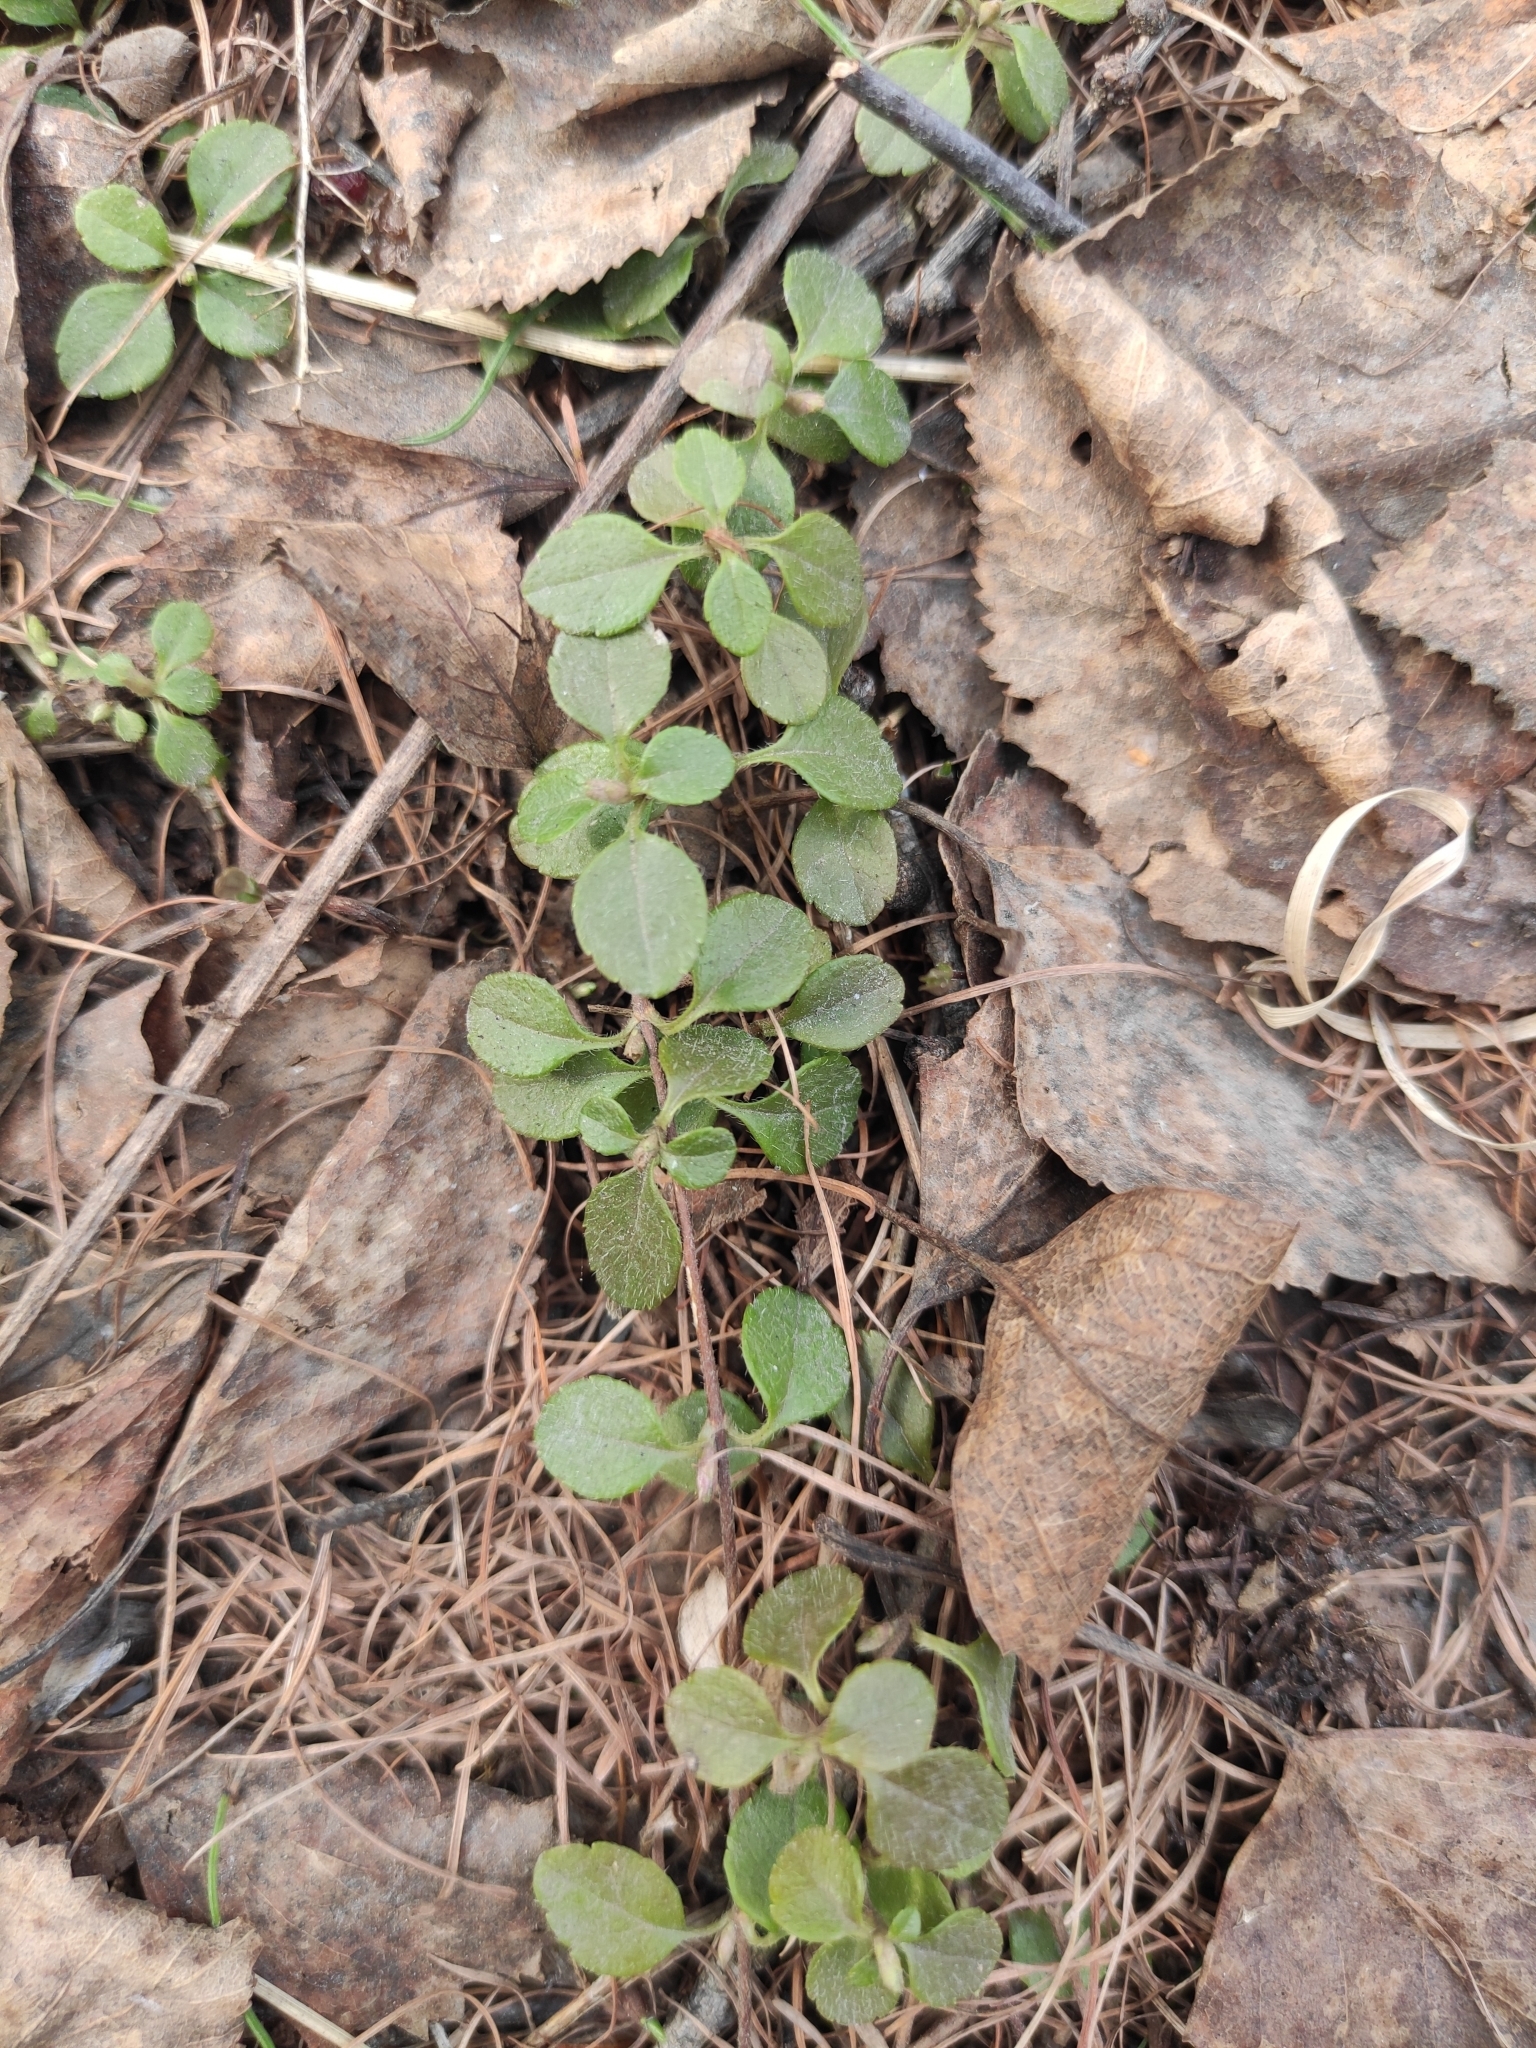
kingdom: Plantae
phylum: Tracheophyta
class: Magnoliopsida
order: Dipsacales
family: Caprifoliaceae
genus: Linnaea
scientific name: Linnaea borealis
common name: Twinflower
